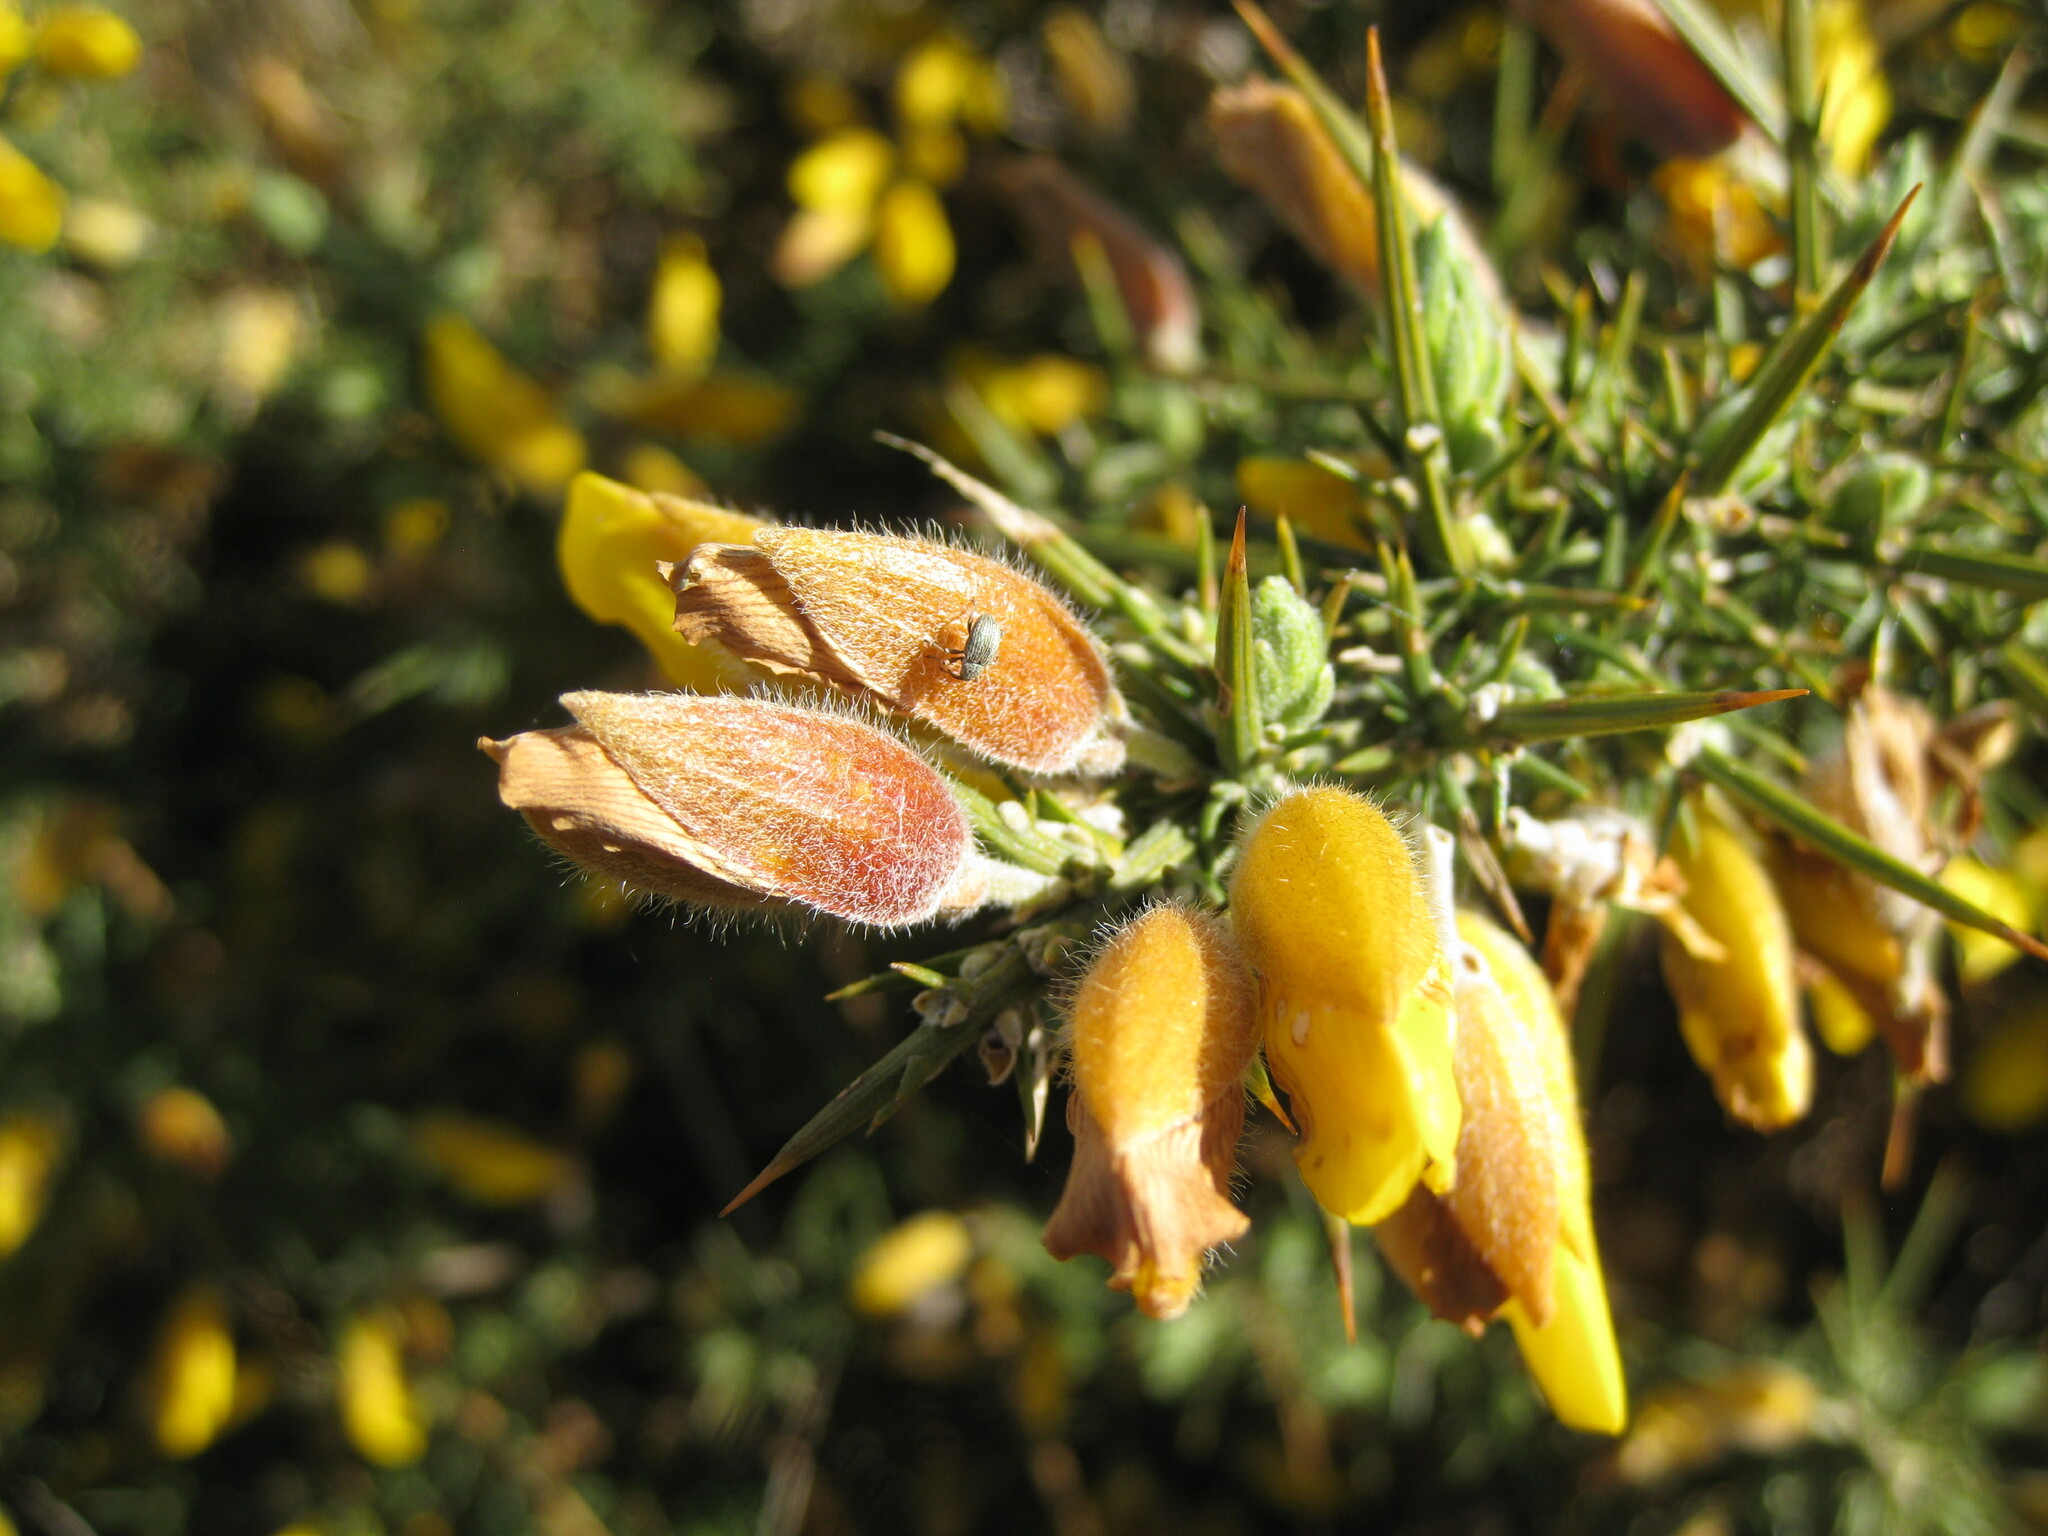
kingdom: Animalia
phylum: Arthropoda
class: Insecta
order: Coleoptera
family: Brentidae
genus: Exapion
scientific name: Exapion ulicis
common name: Gorse seed weevil
